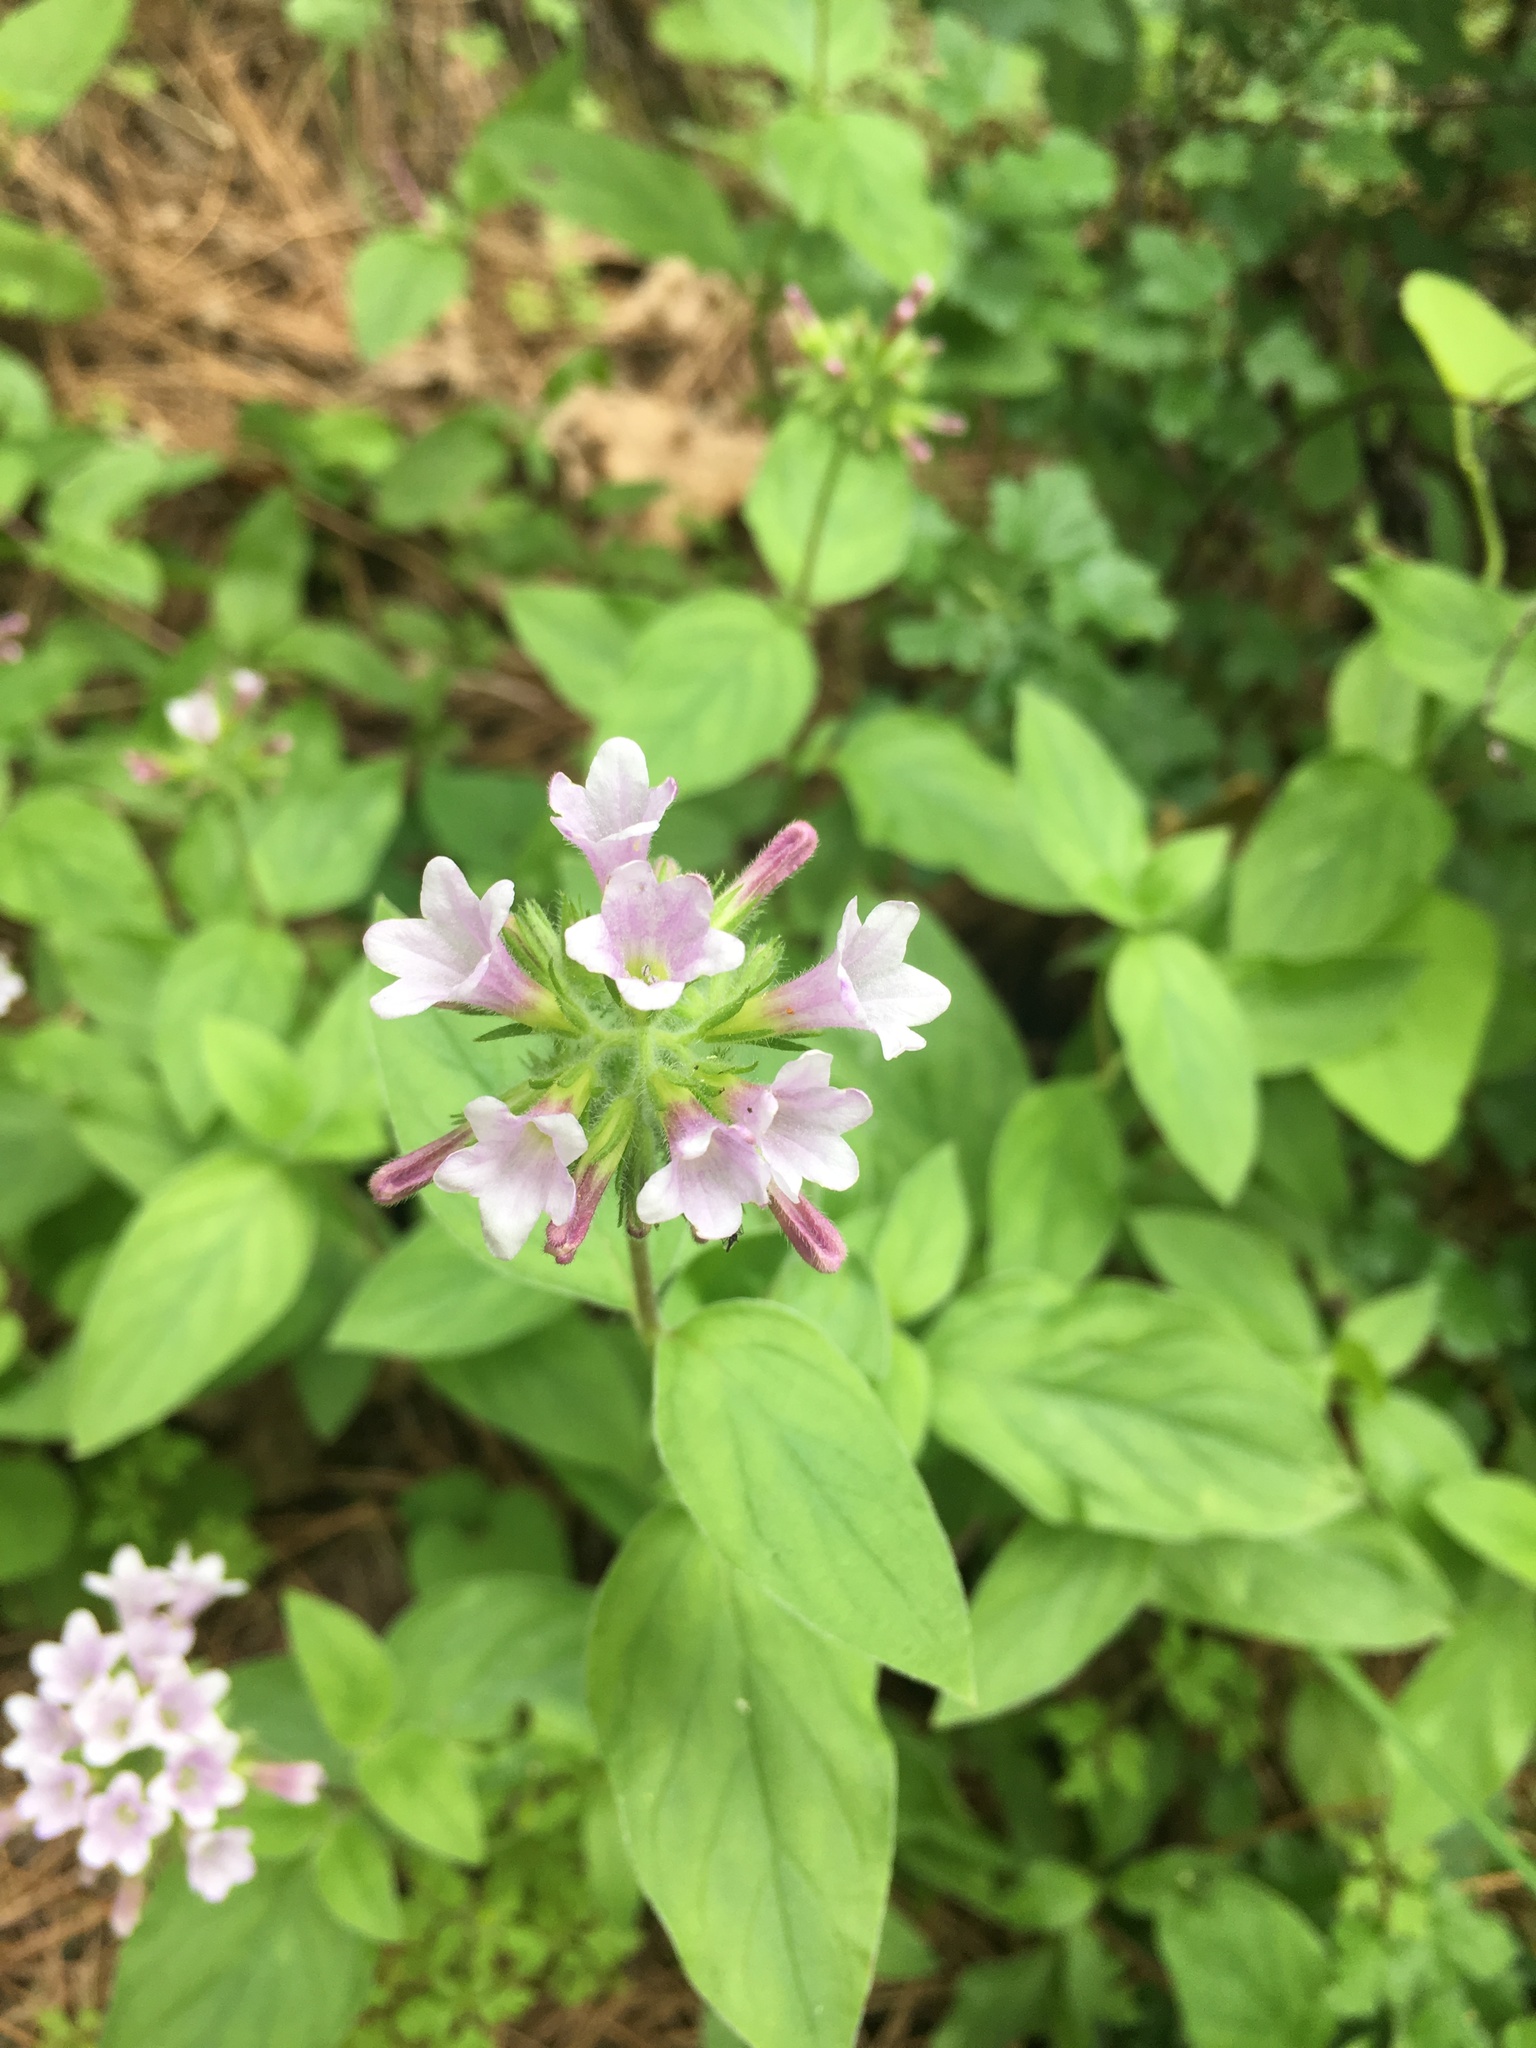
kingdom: Plantae
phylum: Tracheophyta
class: Magnoliopsida
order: Boraginales
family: Hydrophyllaceae
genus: Draperia
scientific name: Draperia systyla
